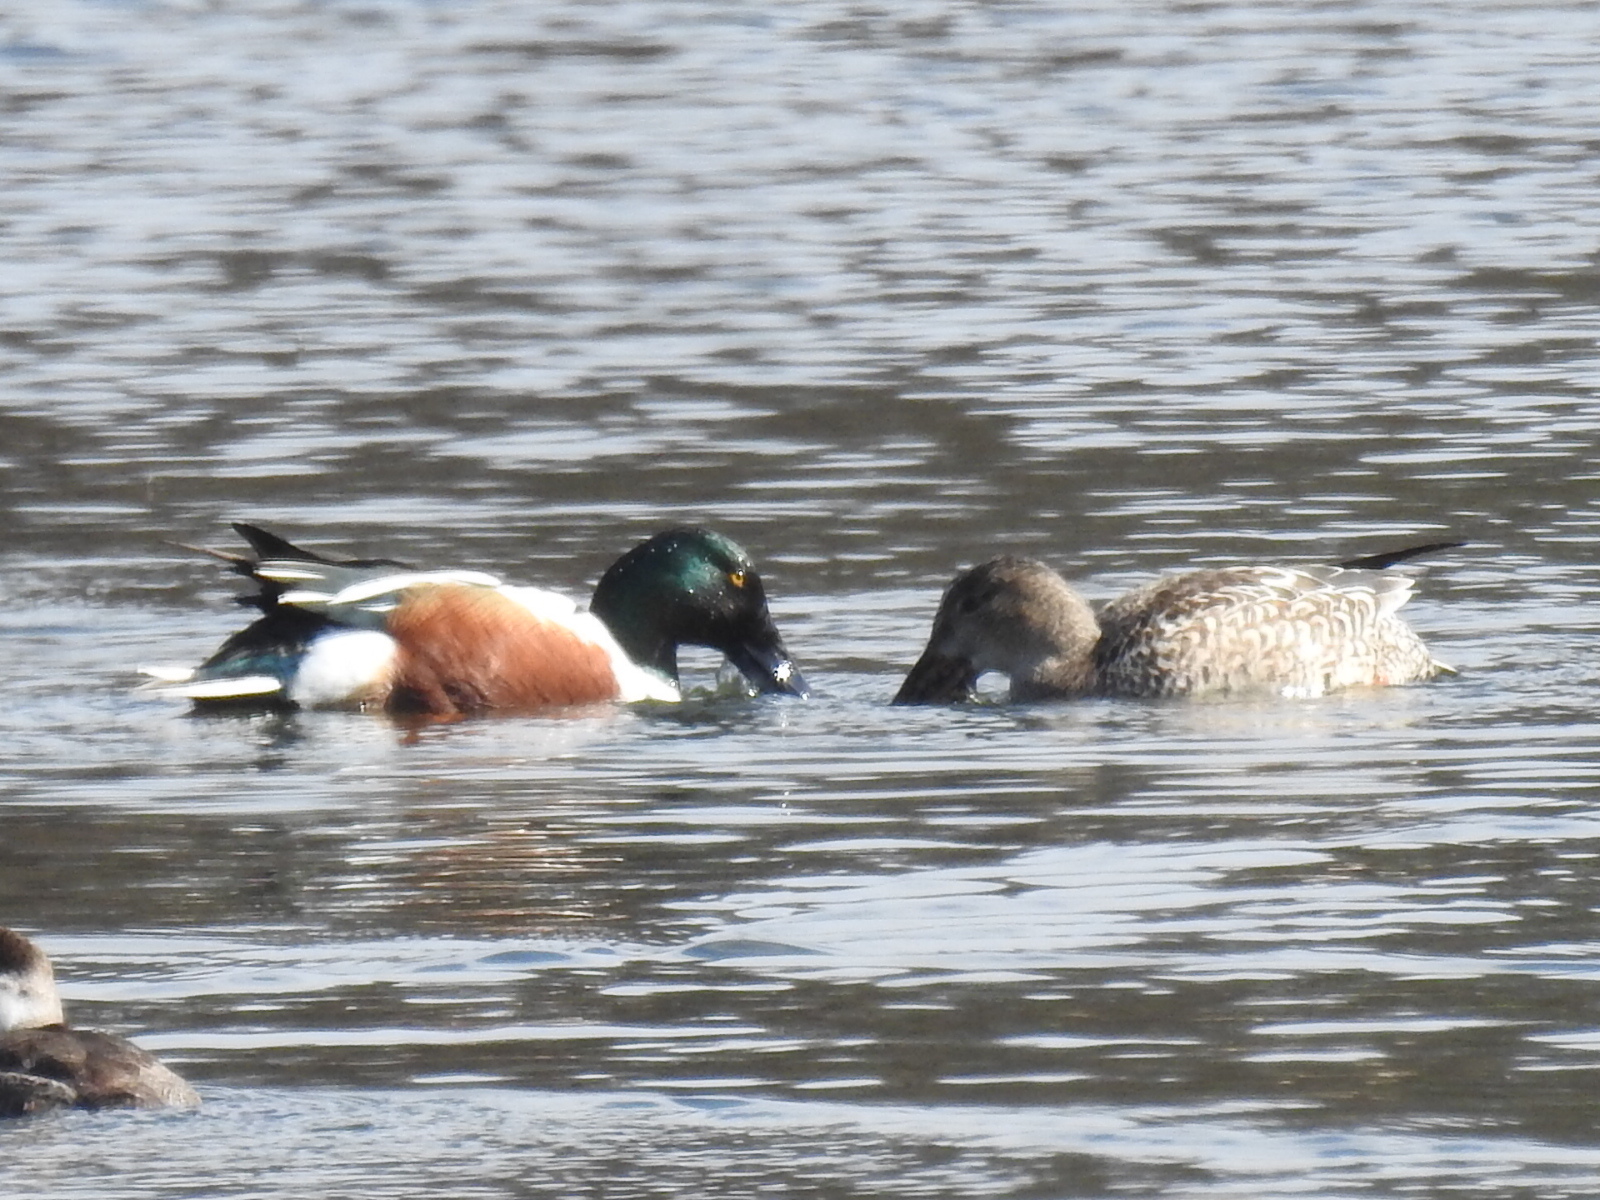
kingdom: Animalia
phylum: Chordata
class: Aves
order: Anseriformes
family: Anatidae
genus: Spatula
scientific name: Spatula clypeata
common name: Northern shoveler
